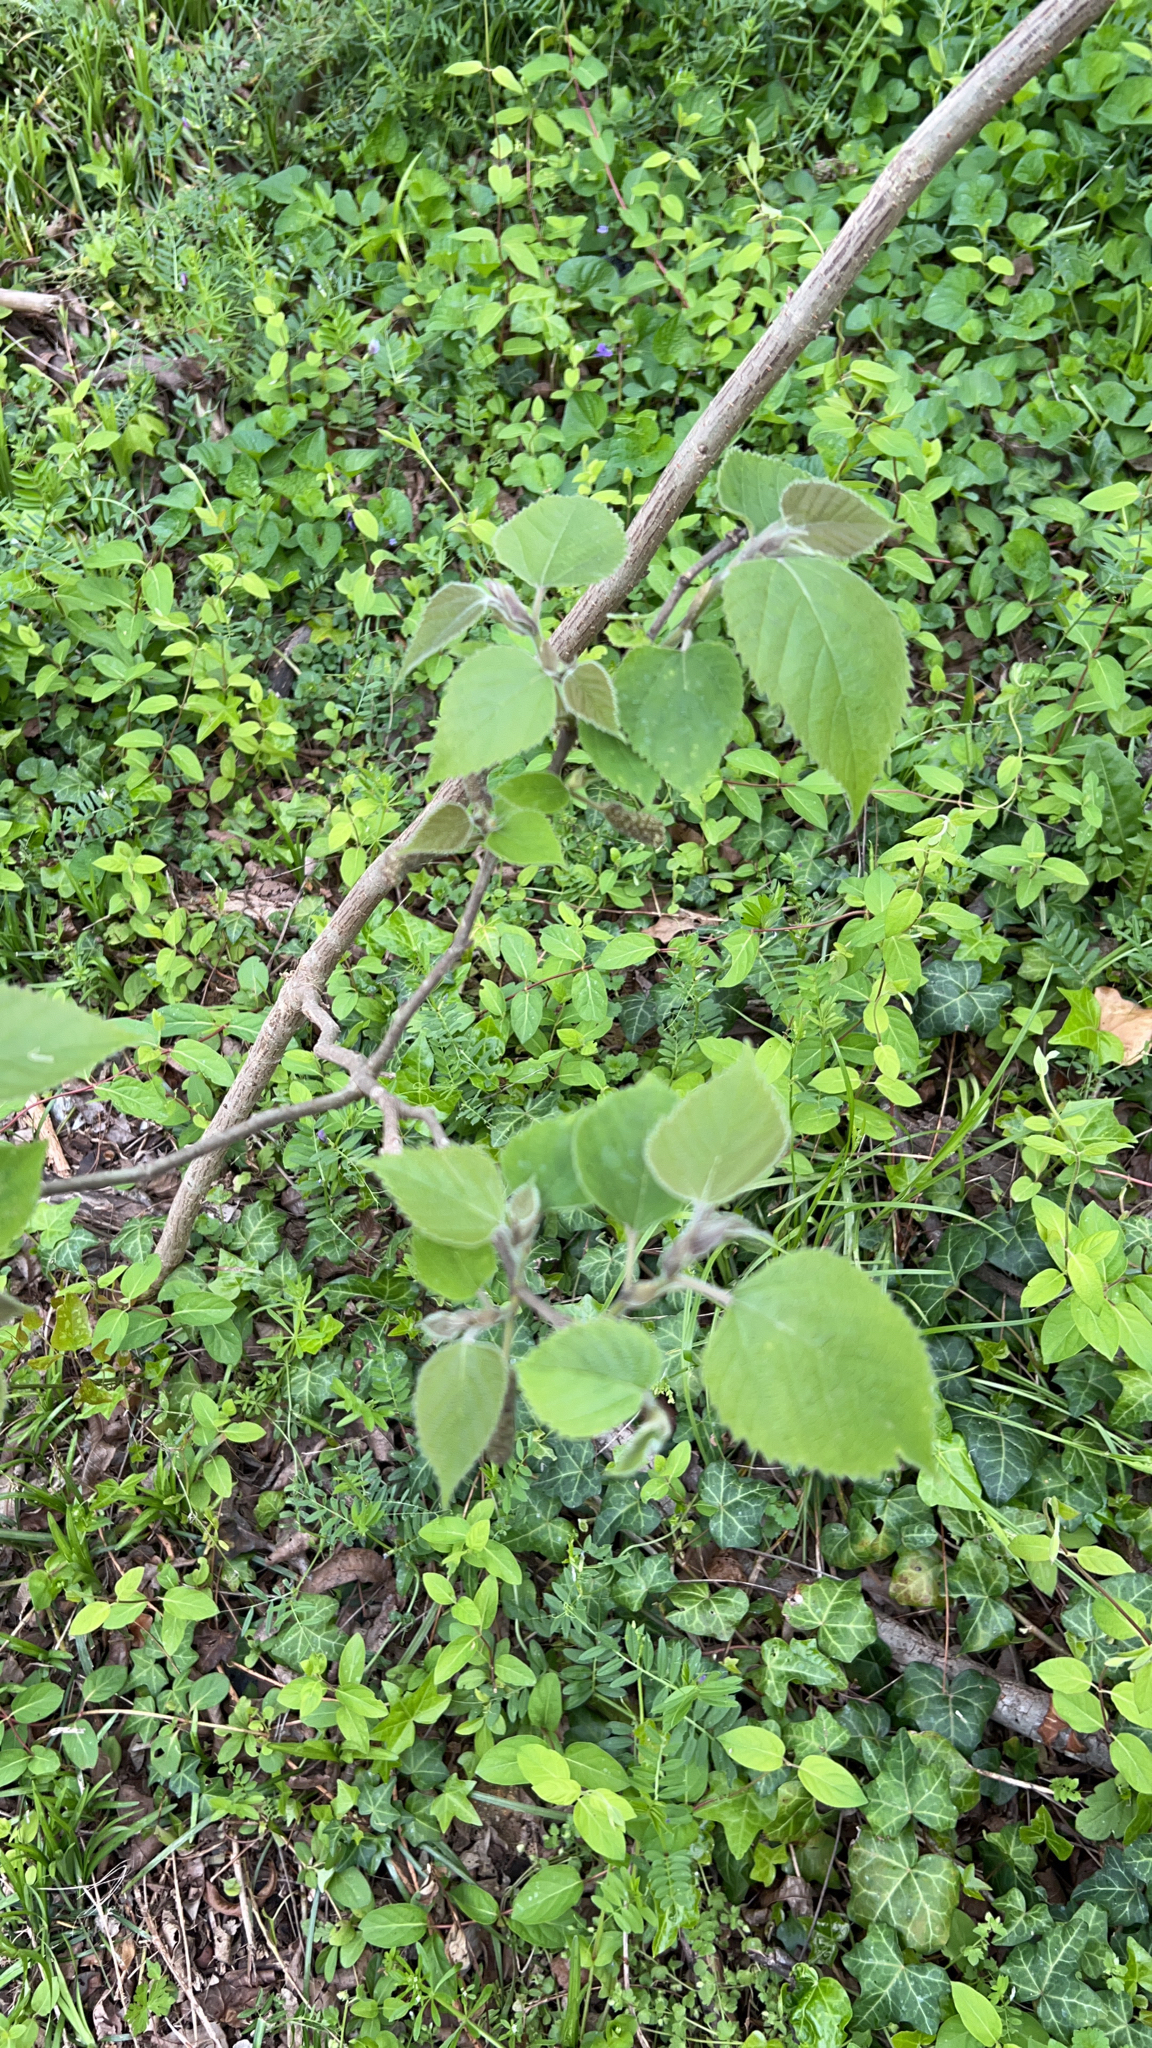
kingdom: Plantae
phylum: Tracheophyta
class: Magnoliopsida
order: Rosales
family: Moraceae
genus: Broussonetia
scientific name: Broussonetia papyrifera
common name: Paper mulberry
